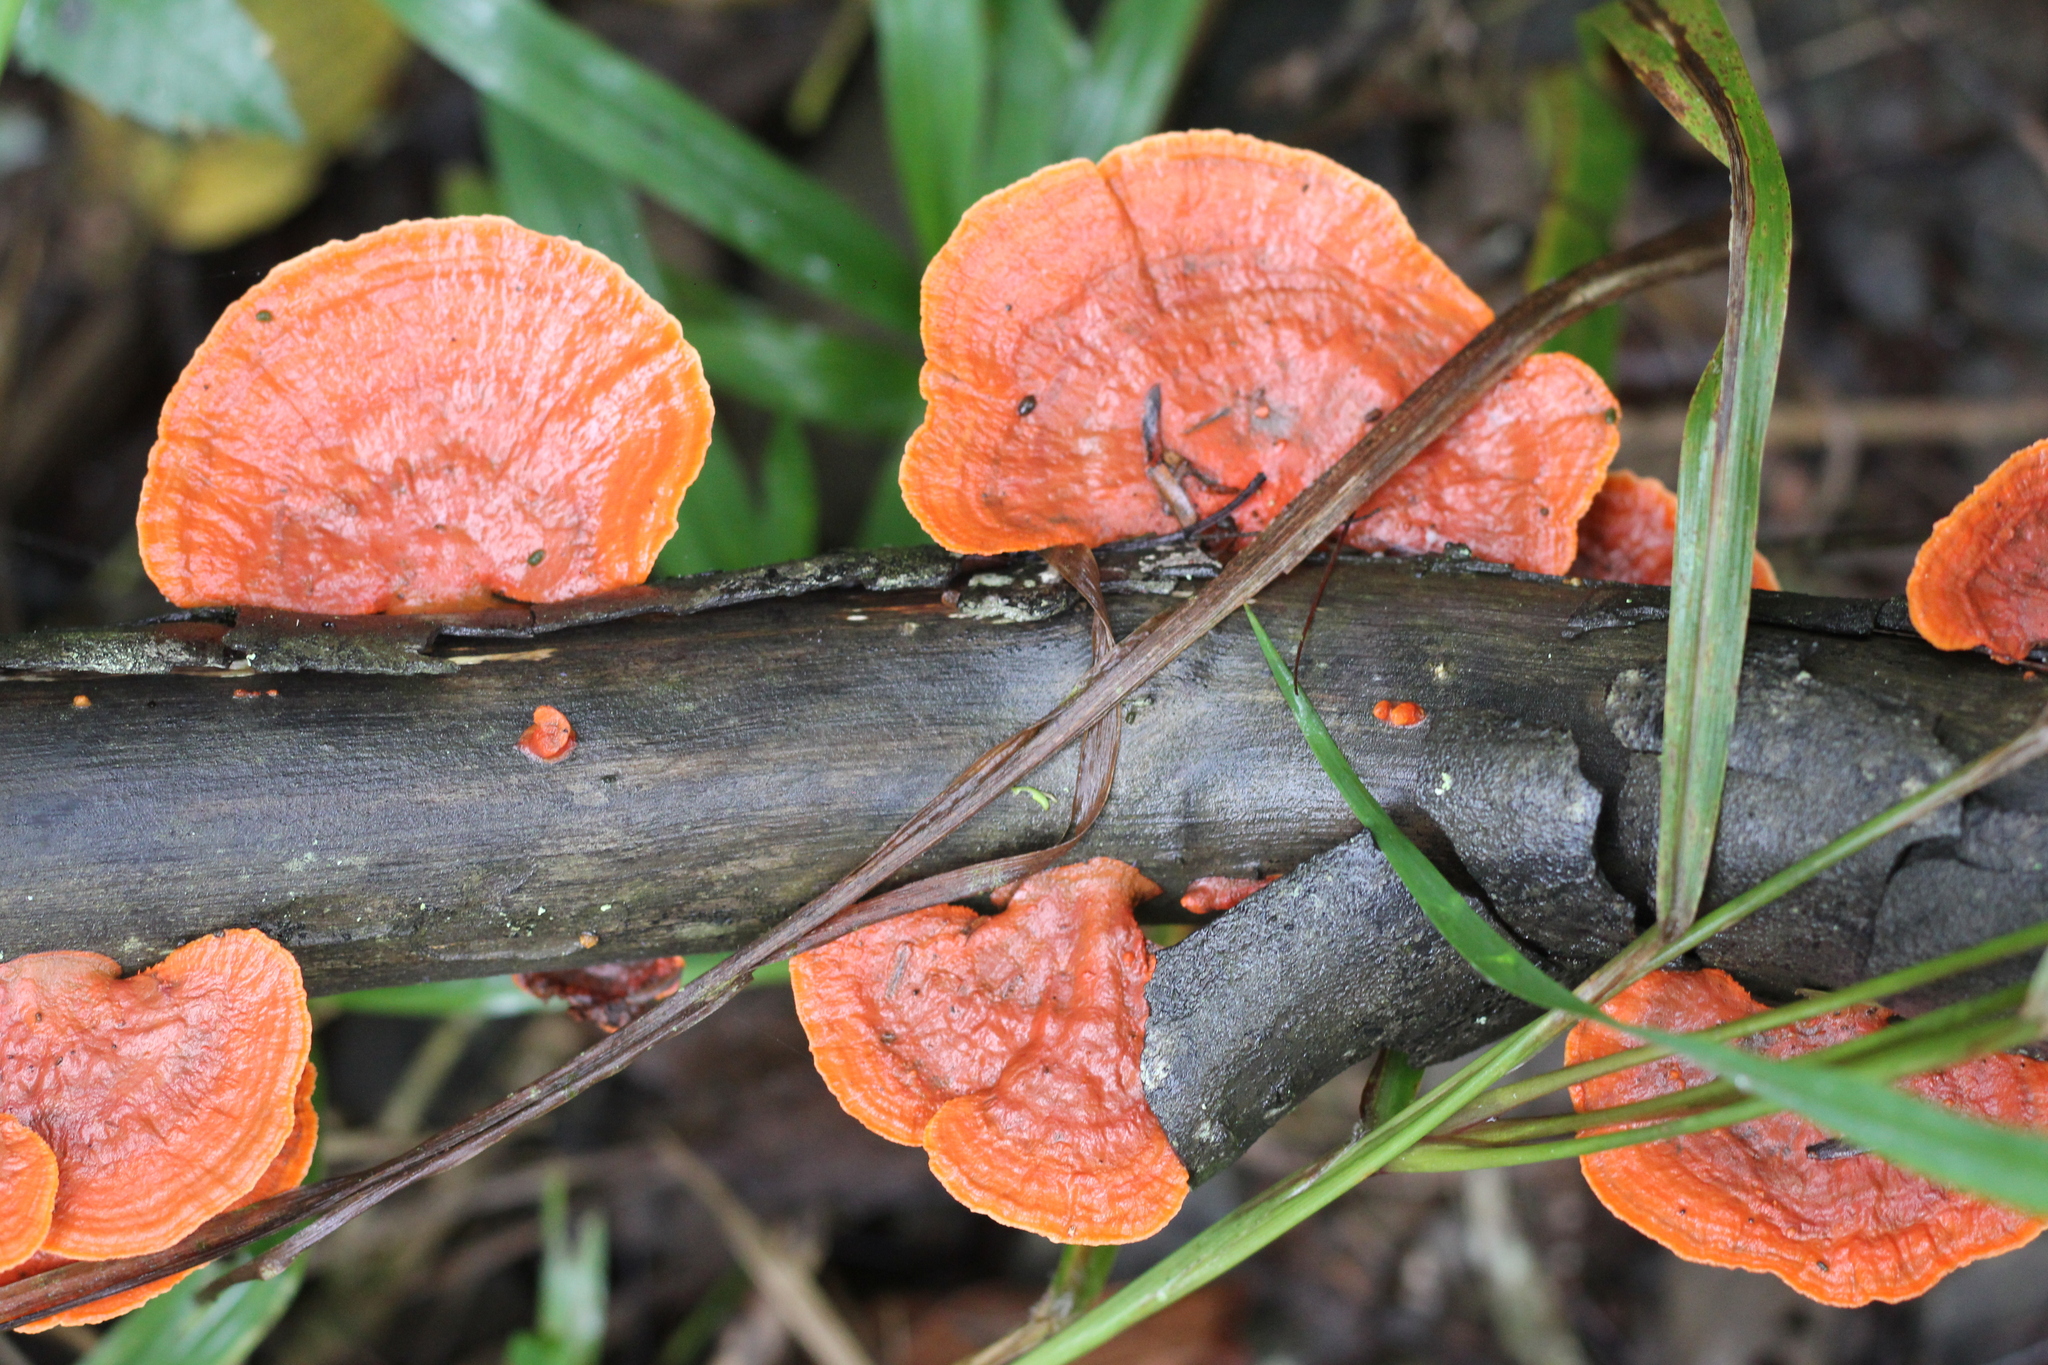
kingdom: Fungi
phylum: Basidiomycota
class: Agaricomycetes
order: Polyporales
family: Polyporaceae
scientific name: Polyporaceae
